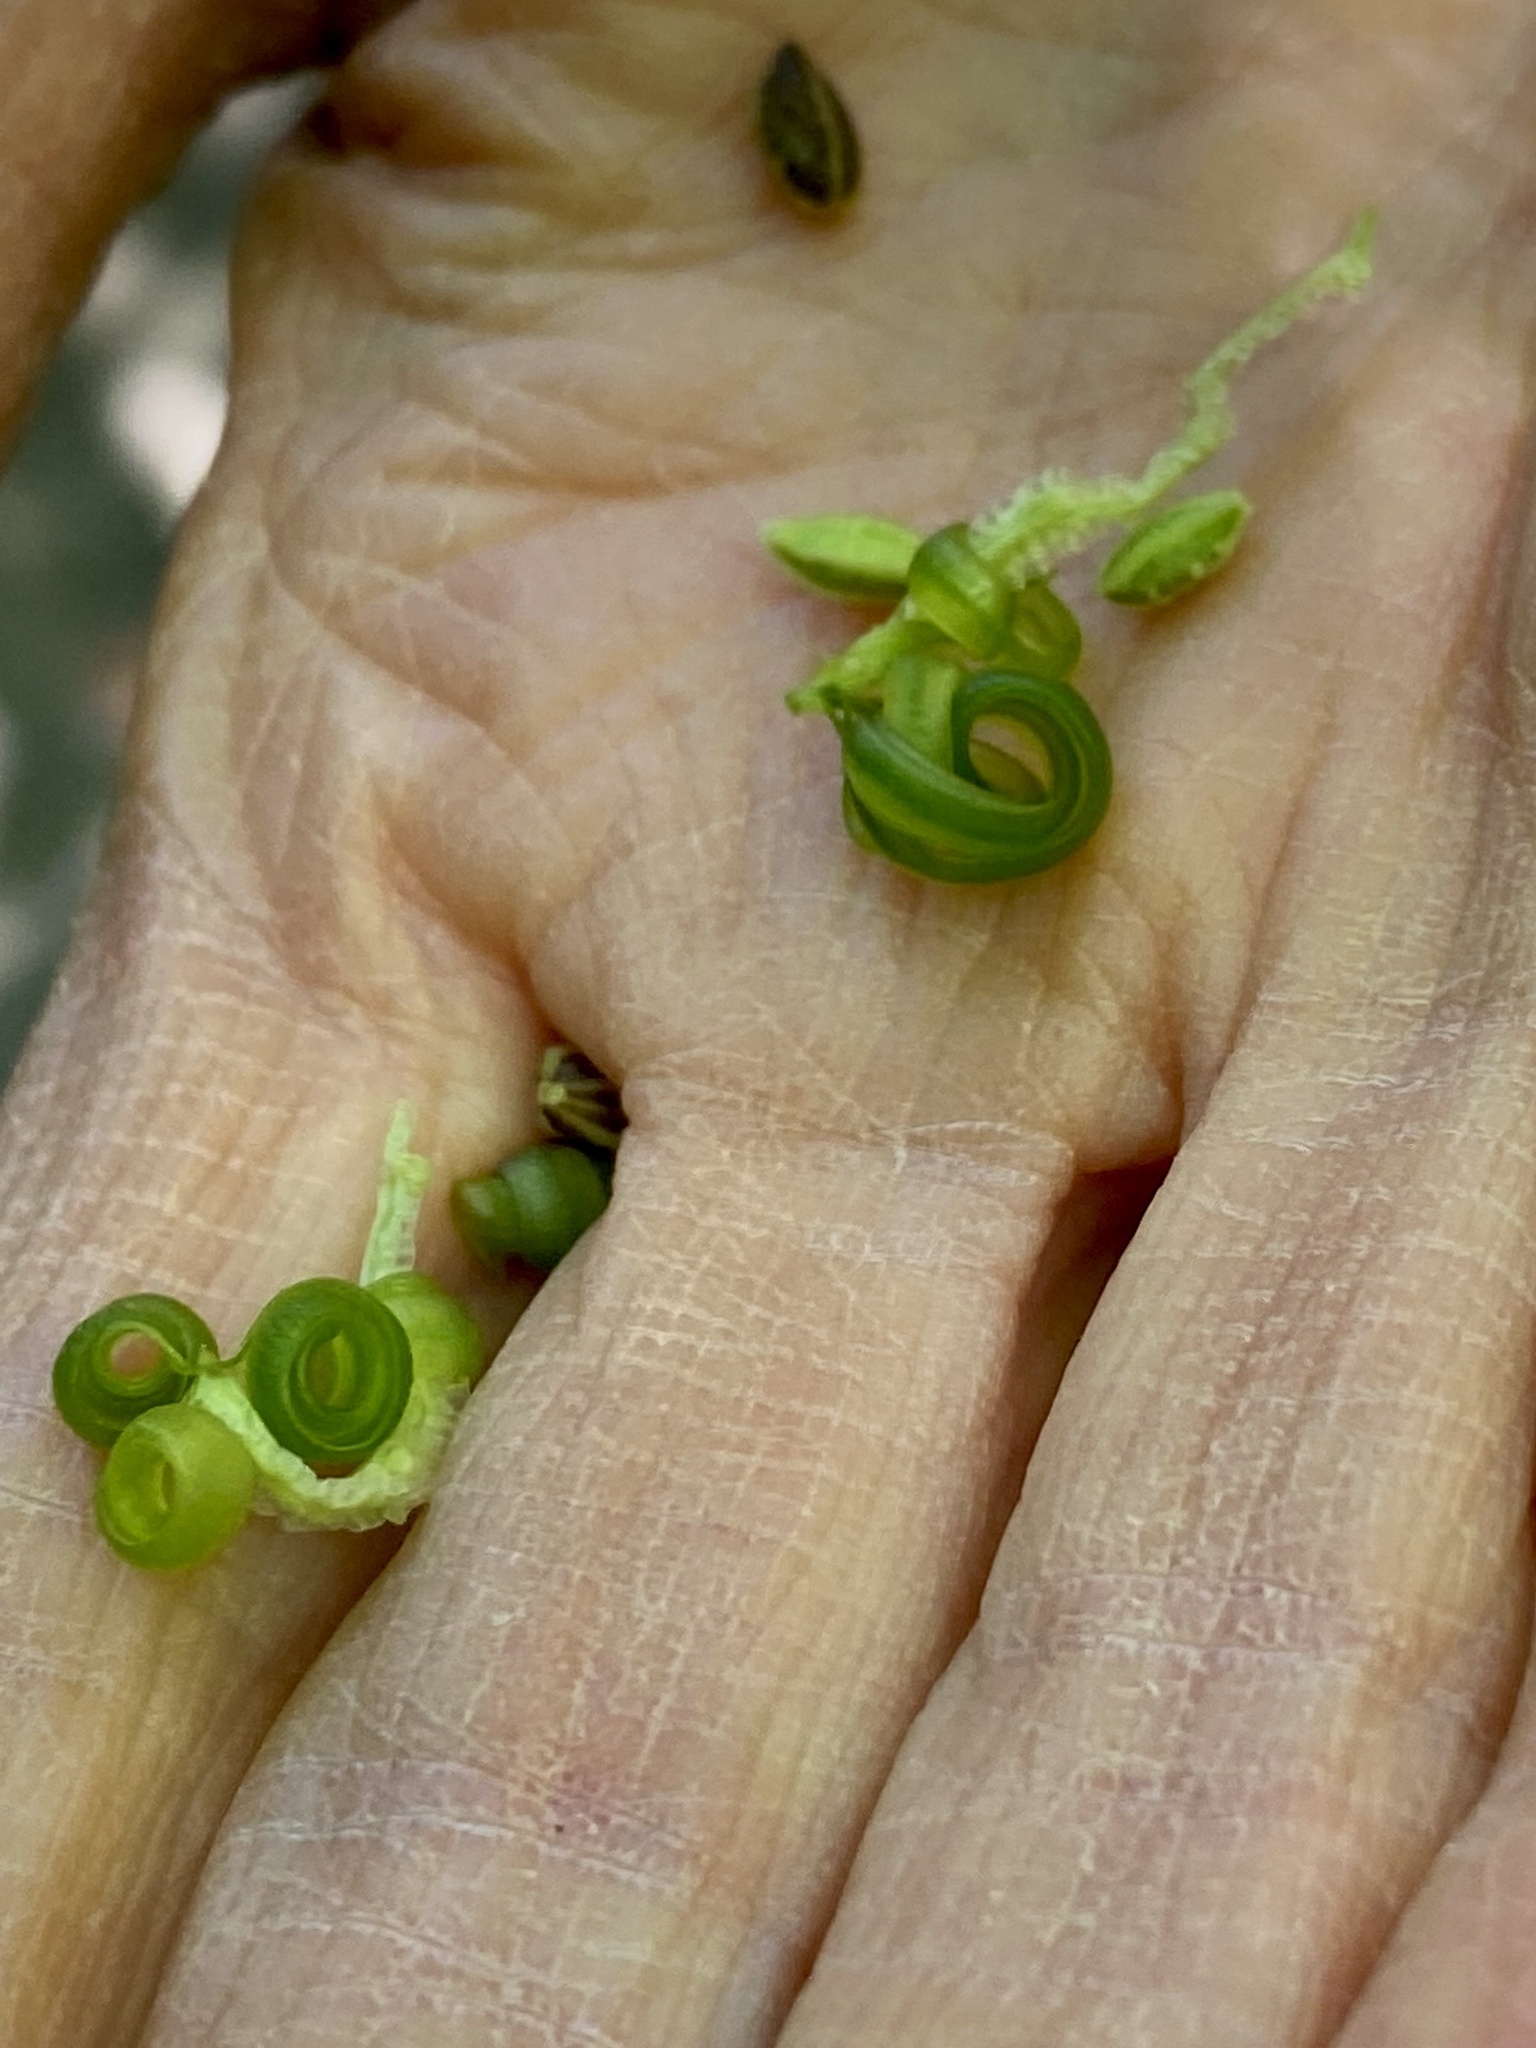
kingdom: Plantae
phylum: Tracheophyta
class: Magnoliopsida
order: Ericales
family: Balsaminaceae
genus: Impatiens
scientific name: Impatiens capensis
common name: Orange balsam
